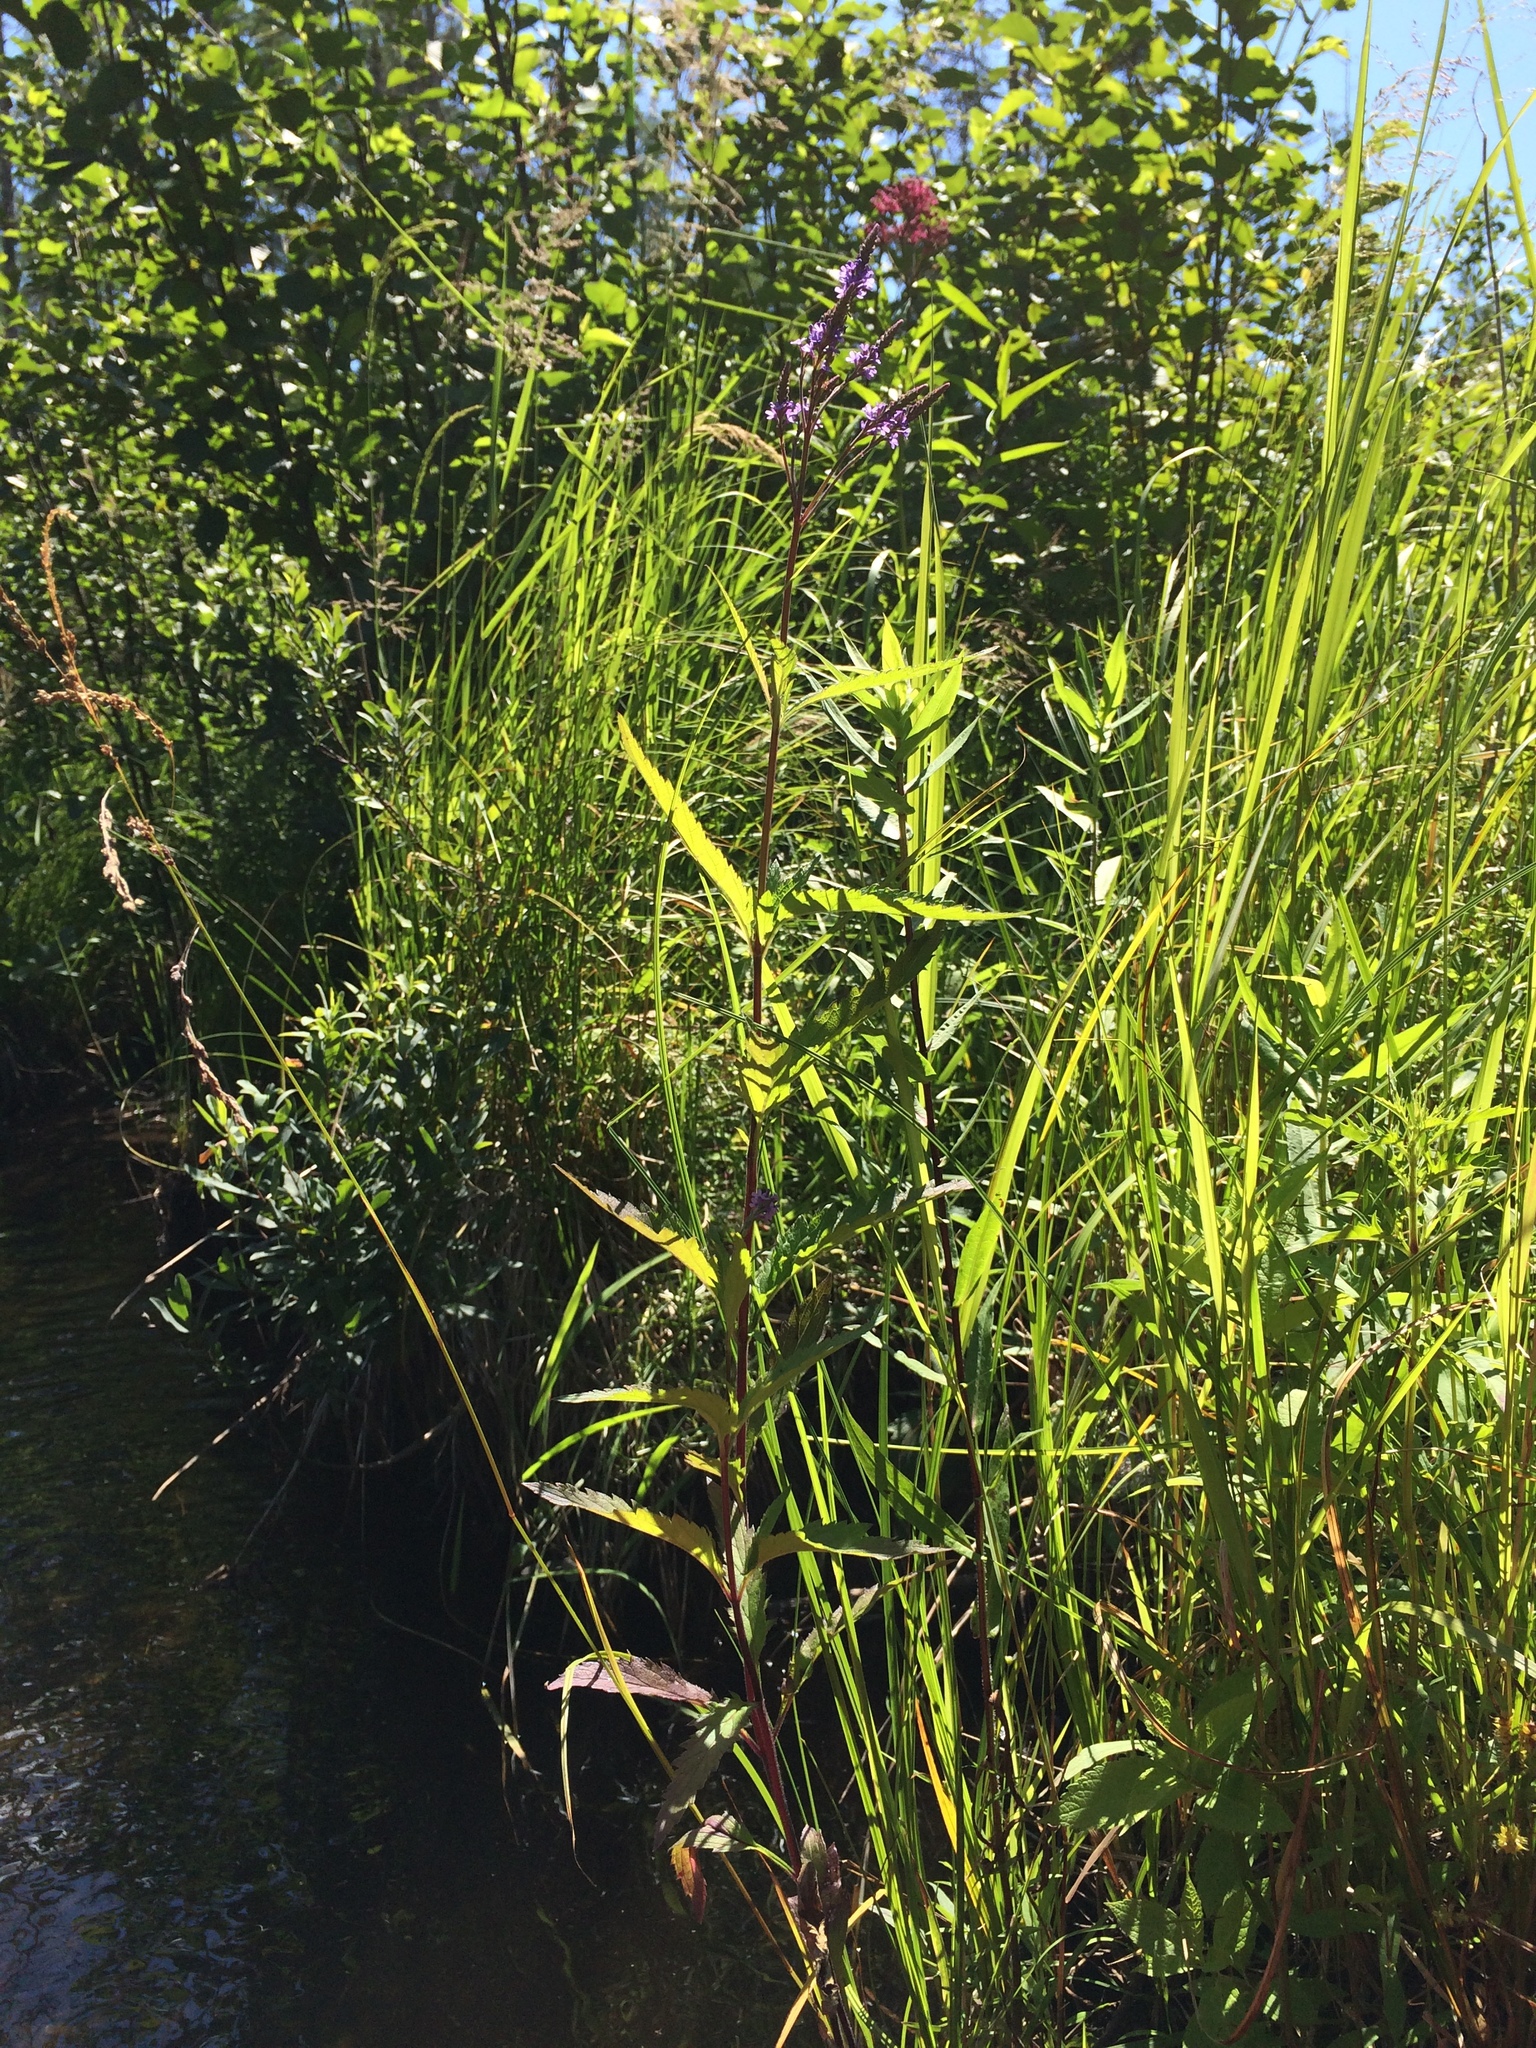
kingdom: Plantae
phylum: Tracheophyta
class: Magnoliopsida
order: Lamiales
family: Verbenaceae
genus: Verbena
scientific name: Verbena hastata
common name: American blue vervain
